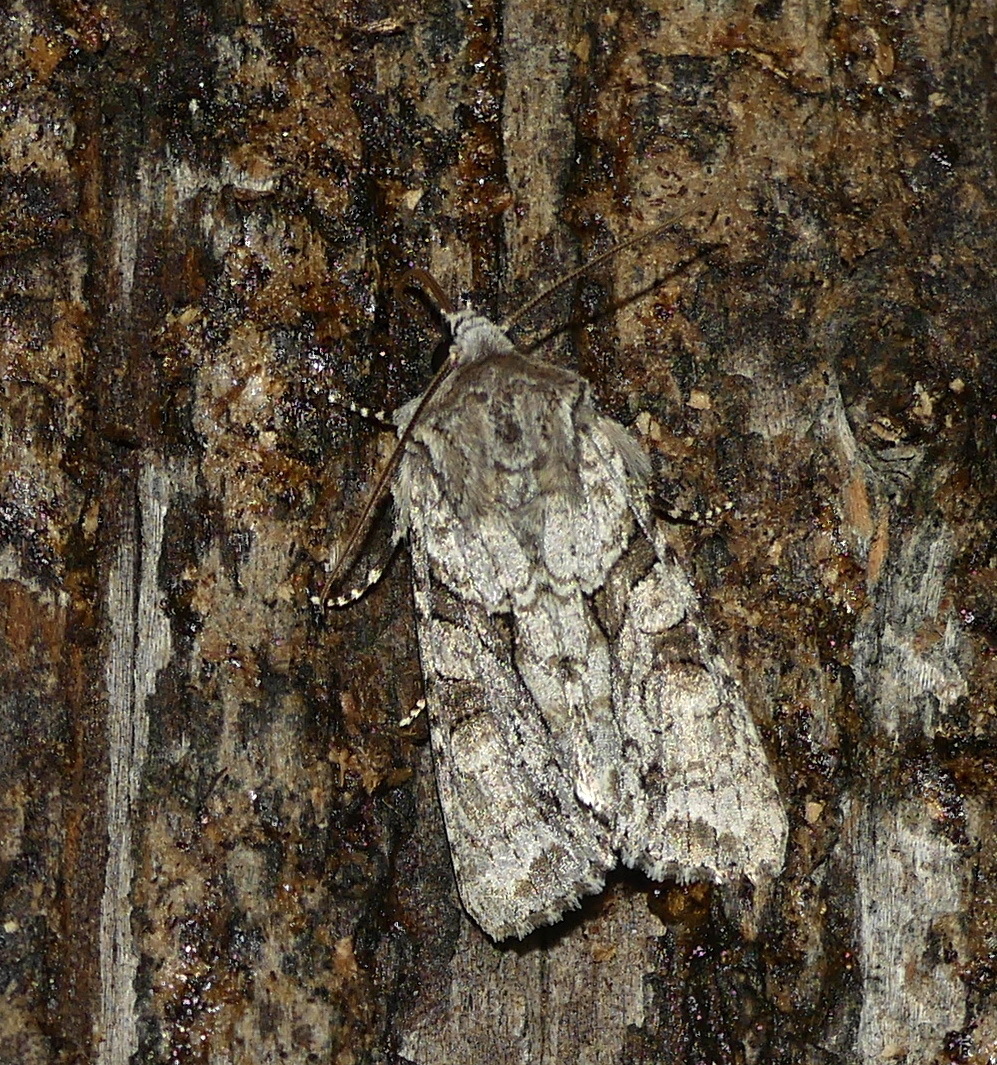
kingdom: Animalia
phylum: Arthropoda
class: Insecta
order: Lepidoptera
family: Noctuidae
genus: Achatia
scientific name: Achatia distincta
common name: Distinct quaker
